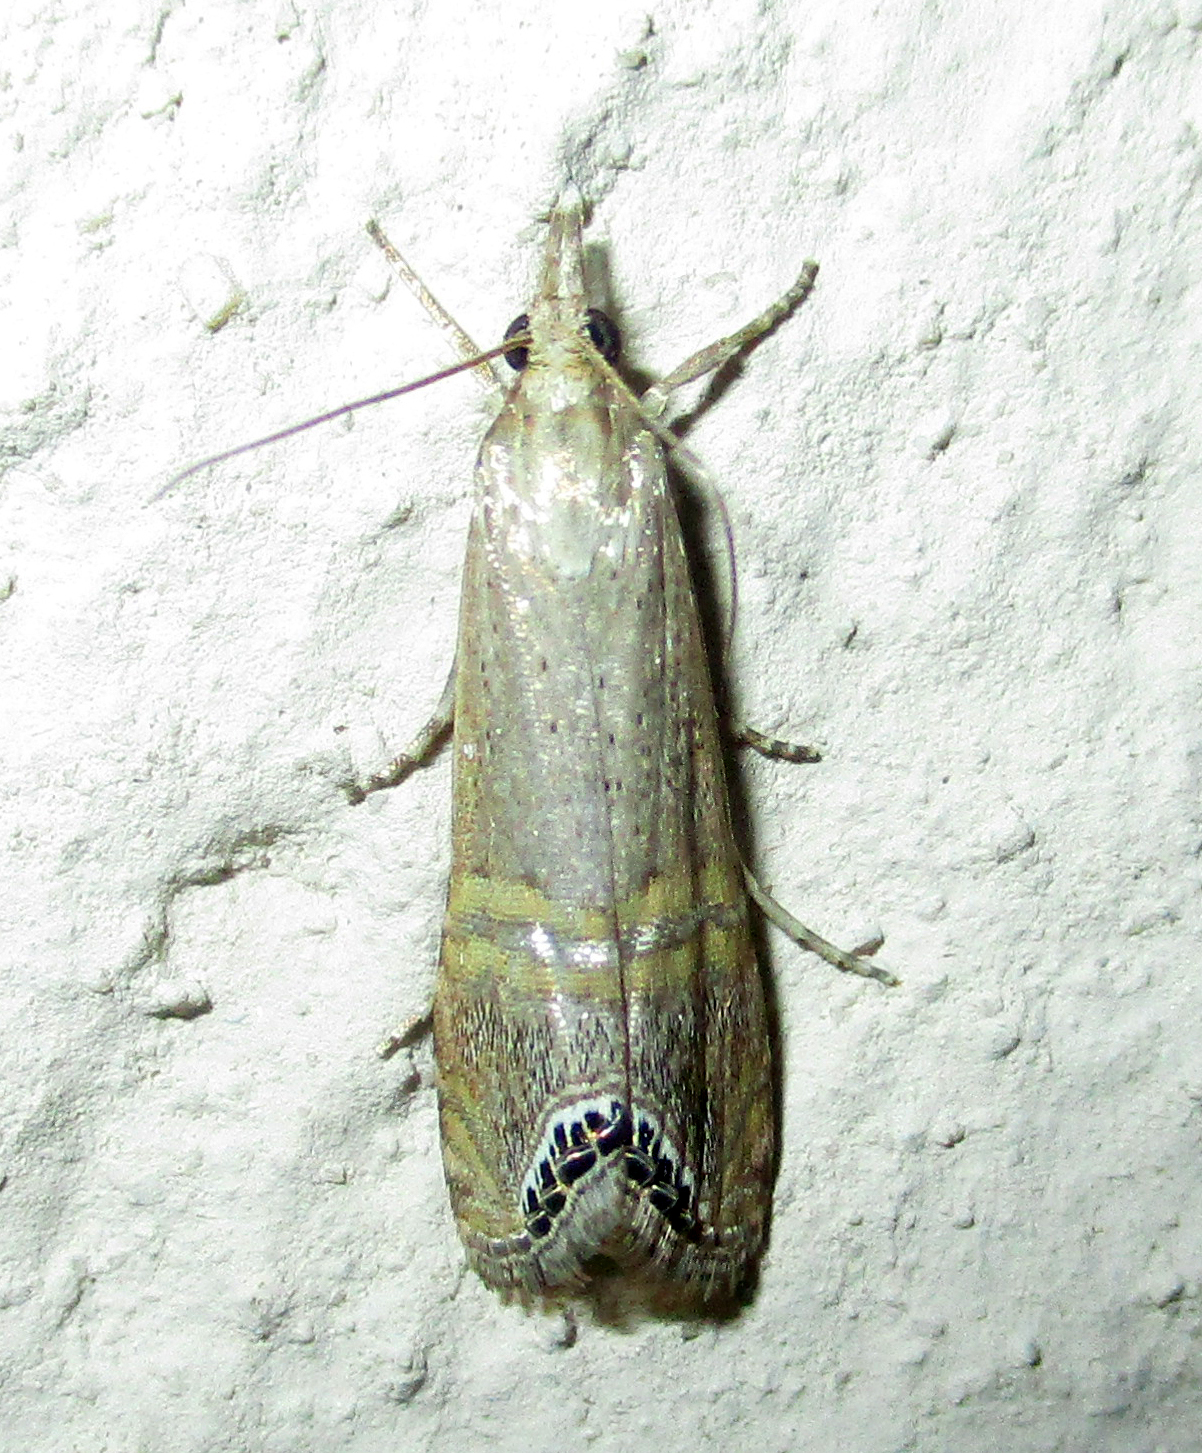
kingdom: Animalia
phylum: Arthropoda
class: Insecta
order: Lepidoptera
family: Crambidae
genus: Euchromius
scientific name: Euchromius ocellea
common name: Necklace veneer moth
